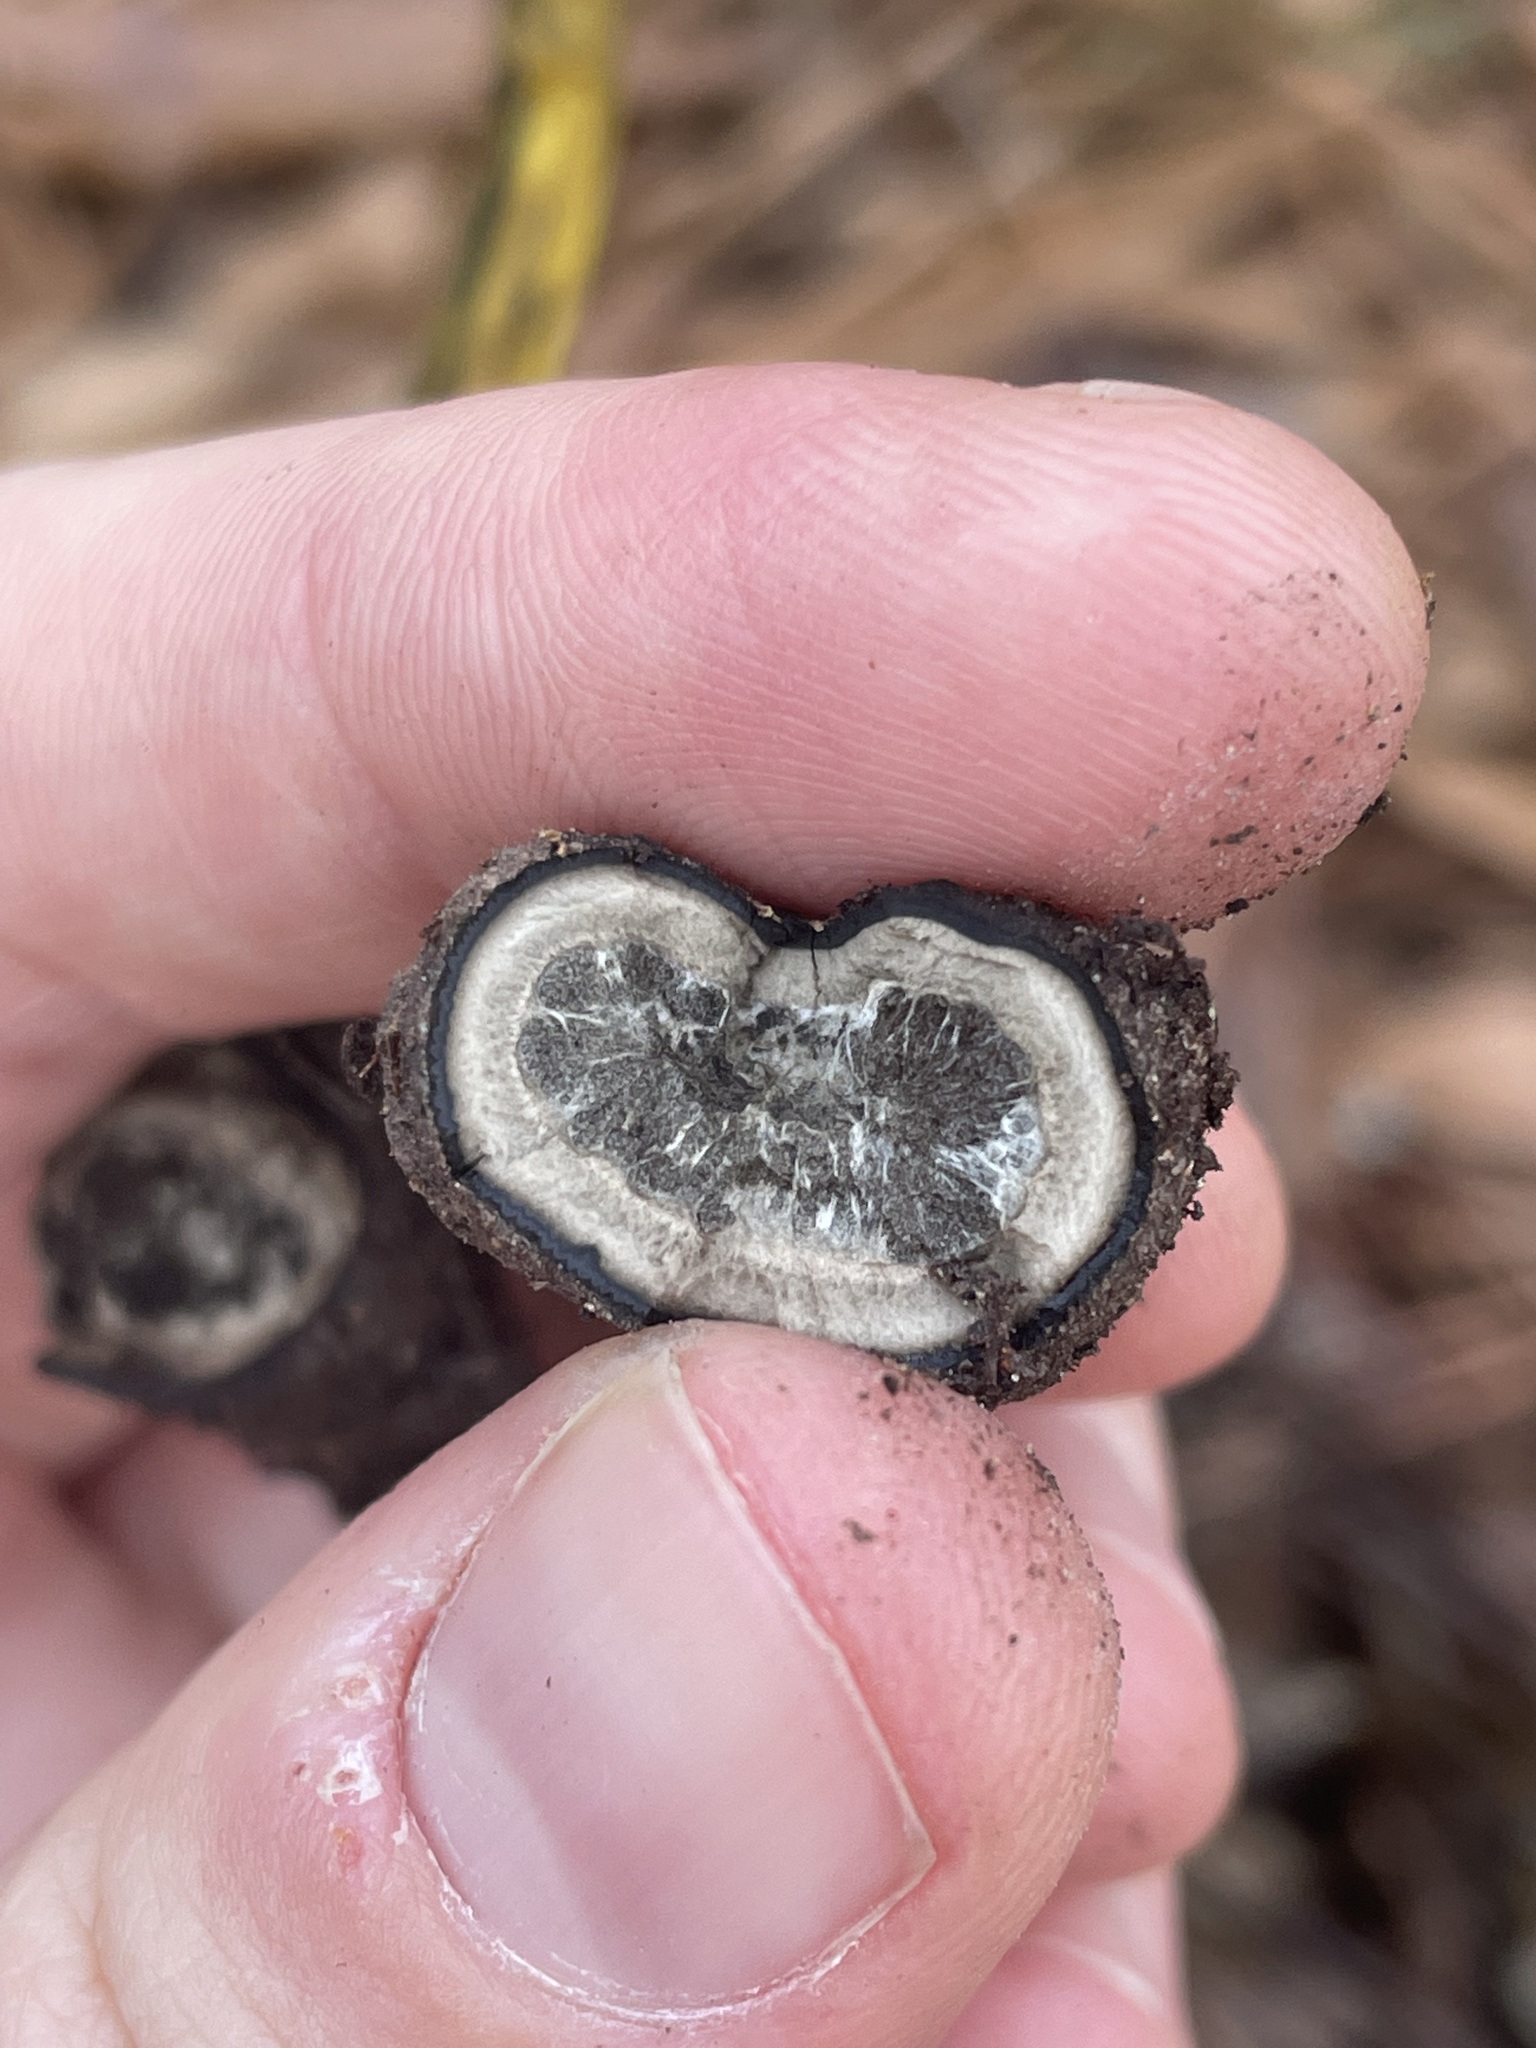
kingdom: Fungi
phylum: Ascomycota
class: Eurotiomycetes
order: Eurotiales
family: Elaphomycetaceae
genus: Elaphomyces
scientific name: Elaphomyces granulatus
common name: False truffle
